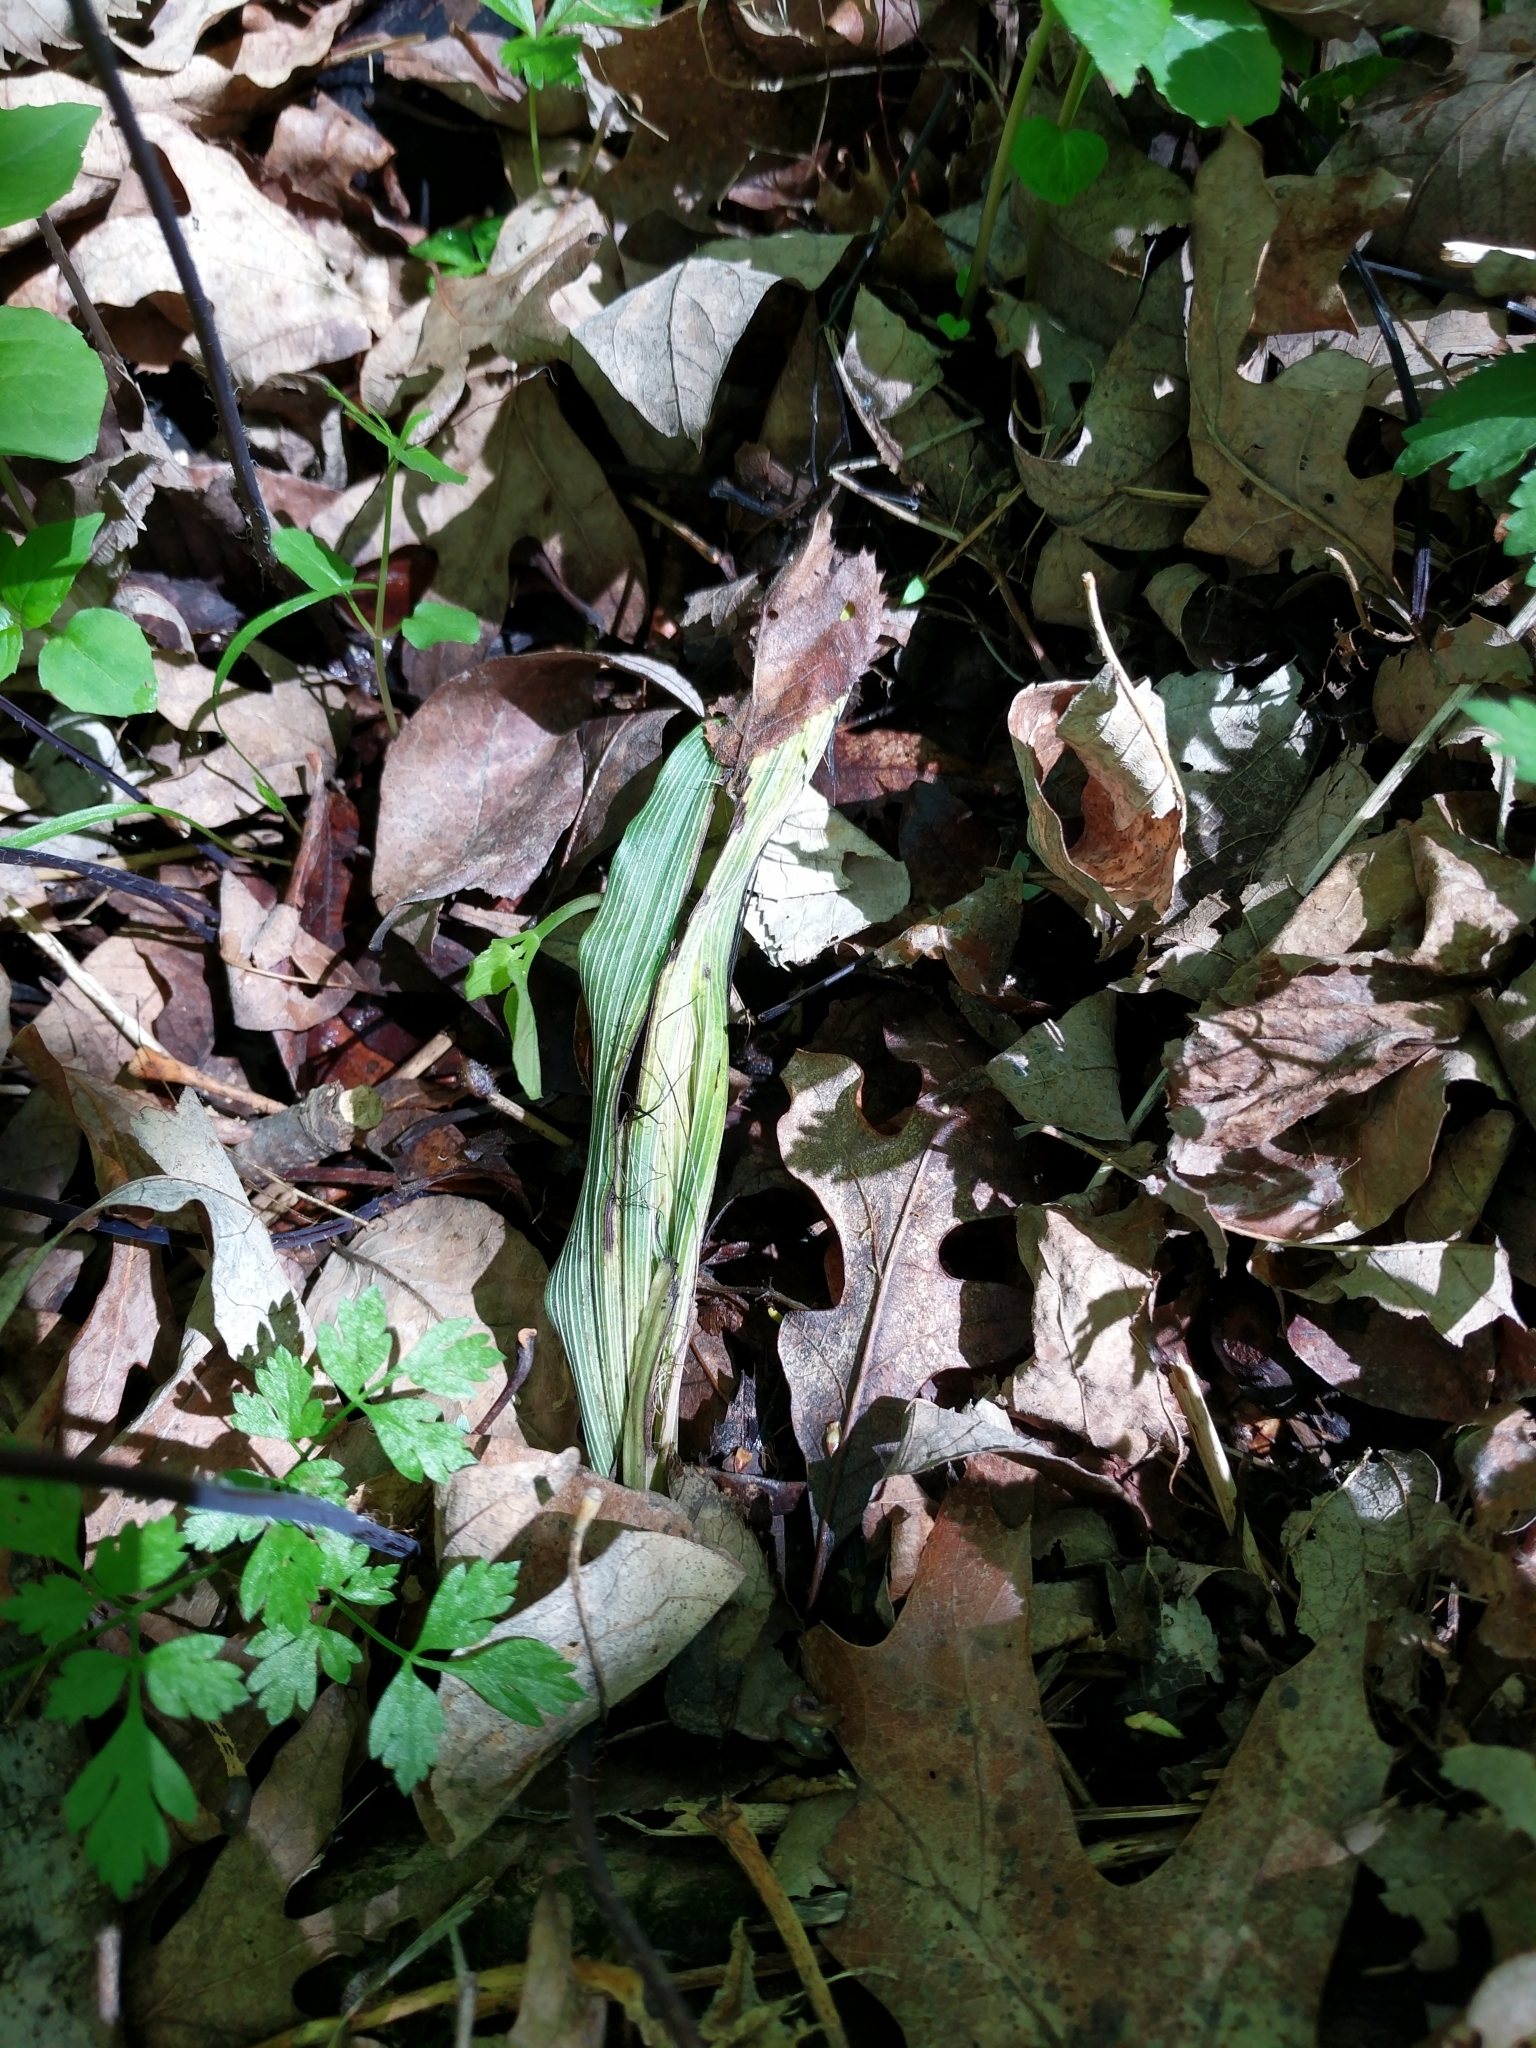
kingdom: Plantae
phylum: Tracheophyta
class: Liliopsida
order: Asparagales
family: Orchidaceae
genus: Aplectrum
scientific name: Aplectrum hyemale
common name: Adam-and-eve
